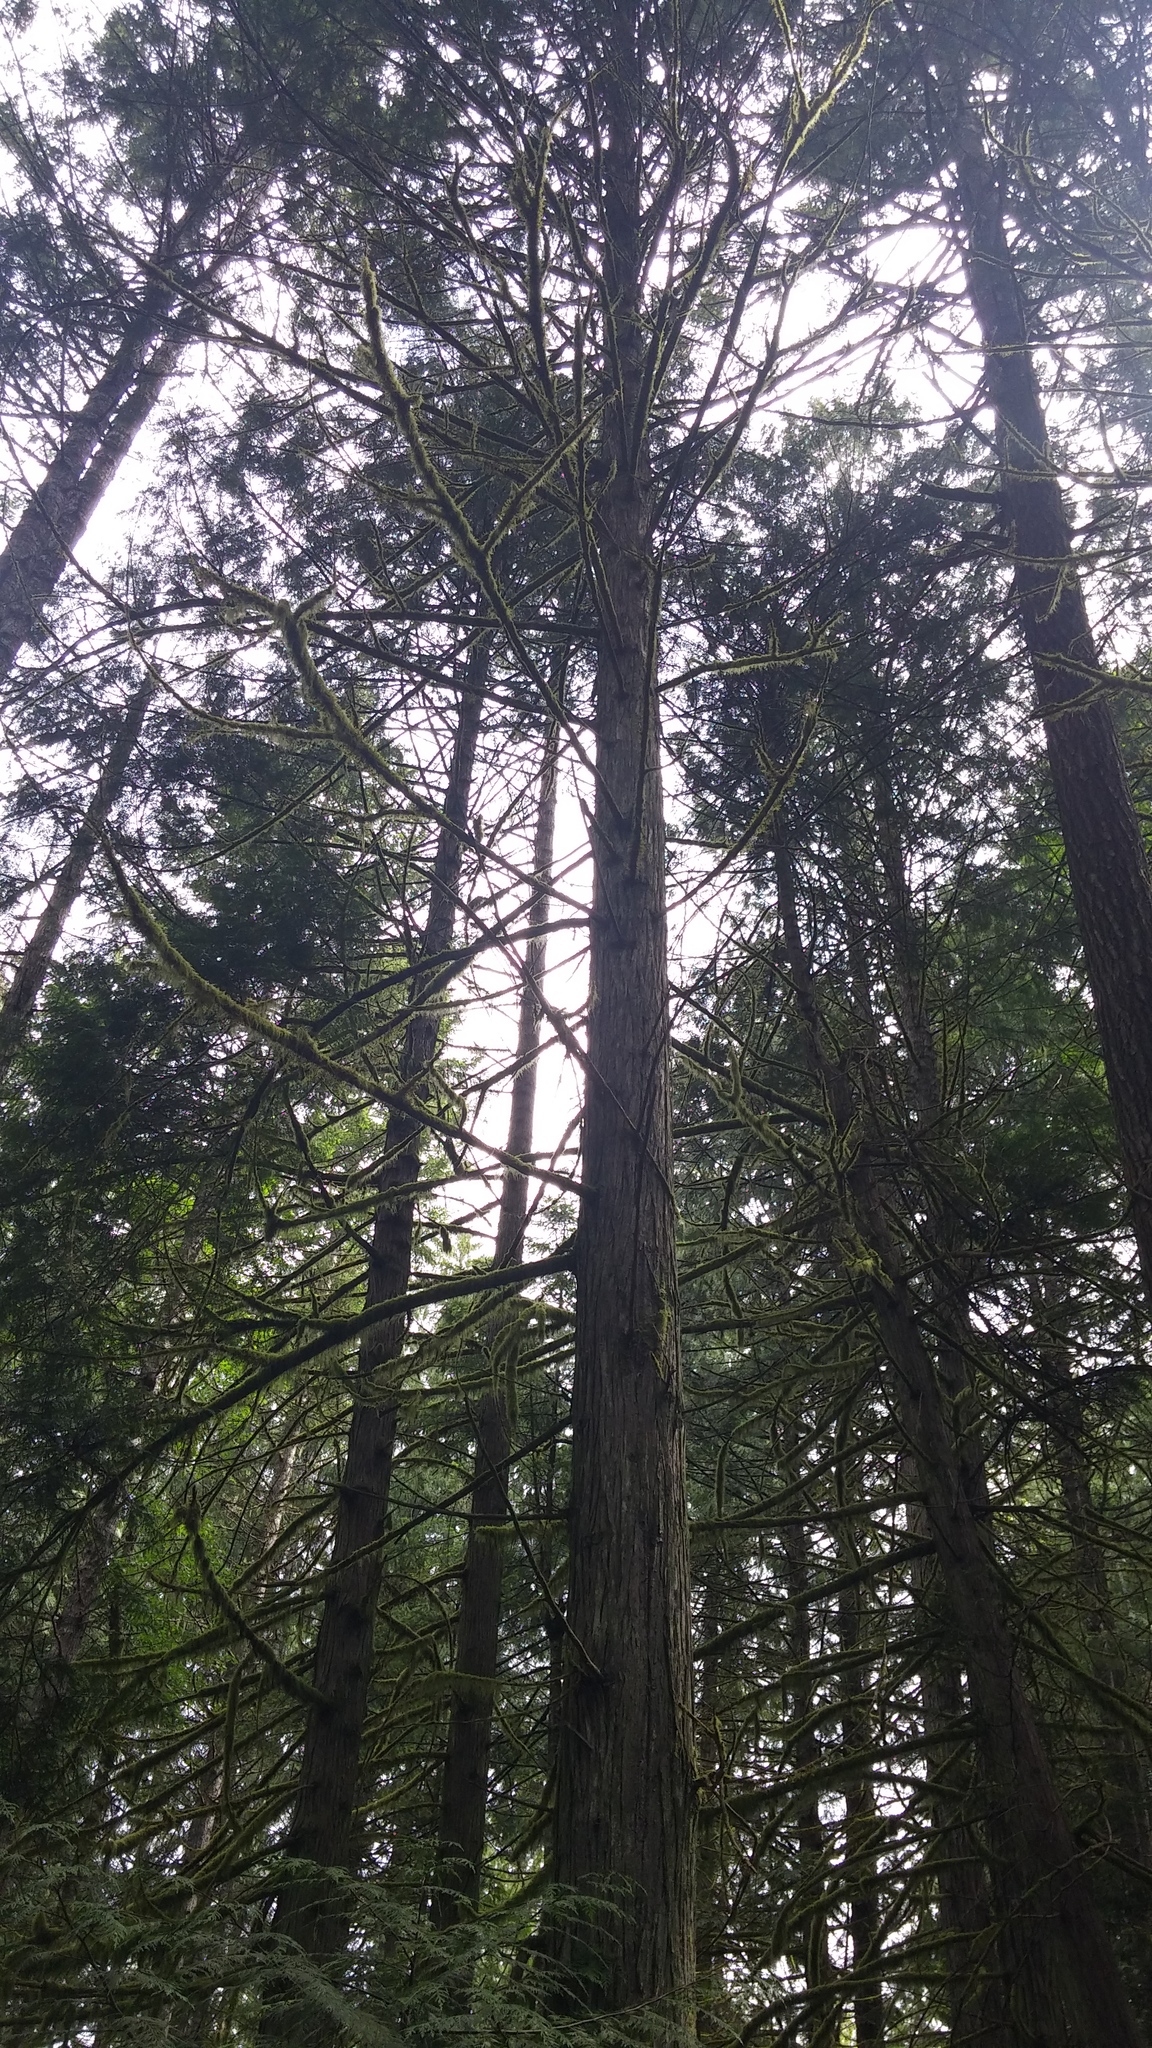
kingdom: Plantae
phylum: Tracheophyta
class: Pinopsida
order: Pinales
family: Cupressaceae
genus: Thuja
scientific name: Thuja plicata
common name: Western red-cedar
